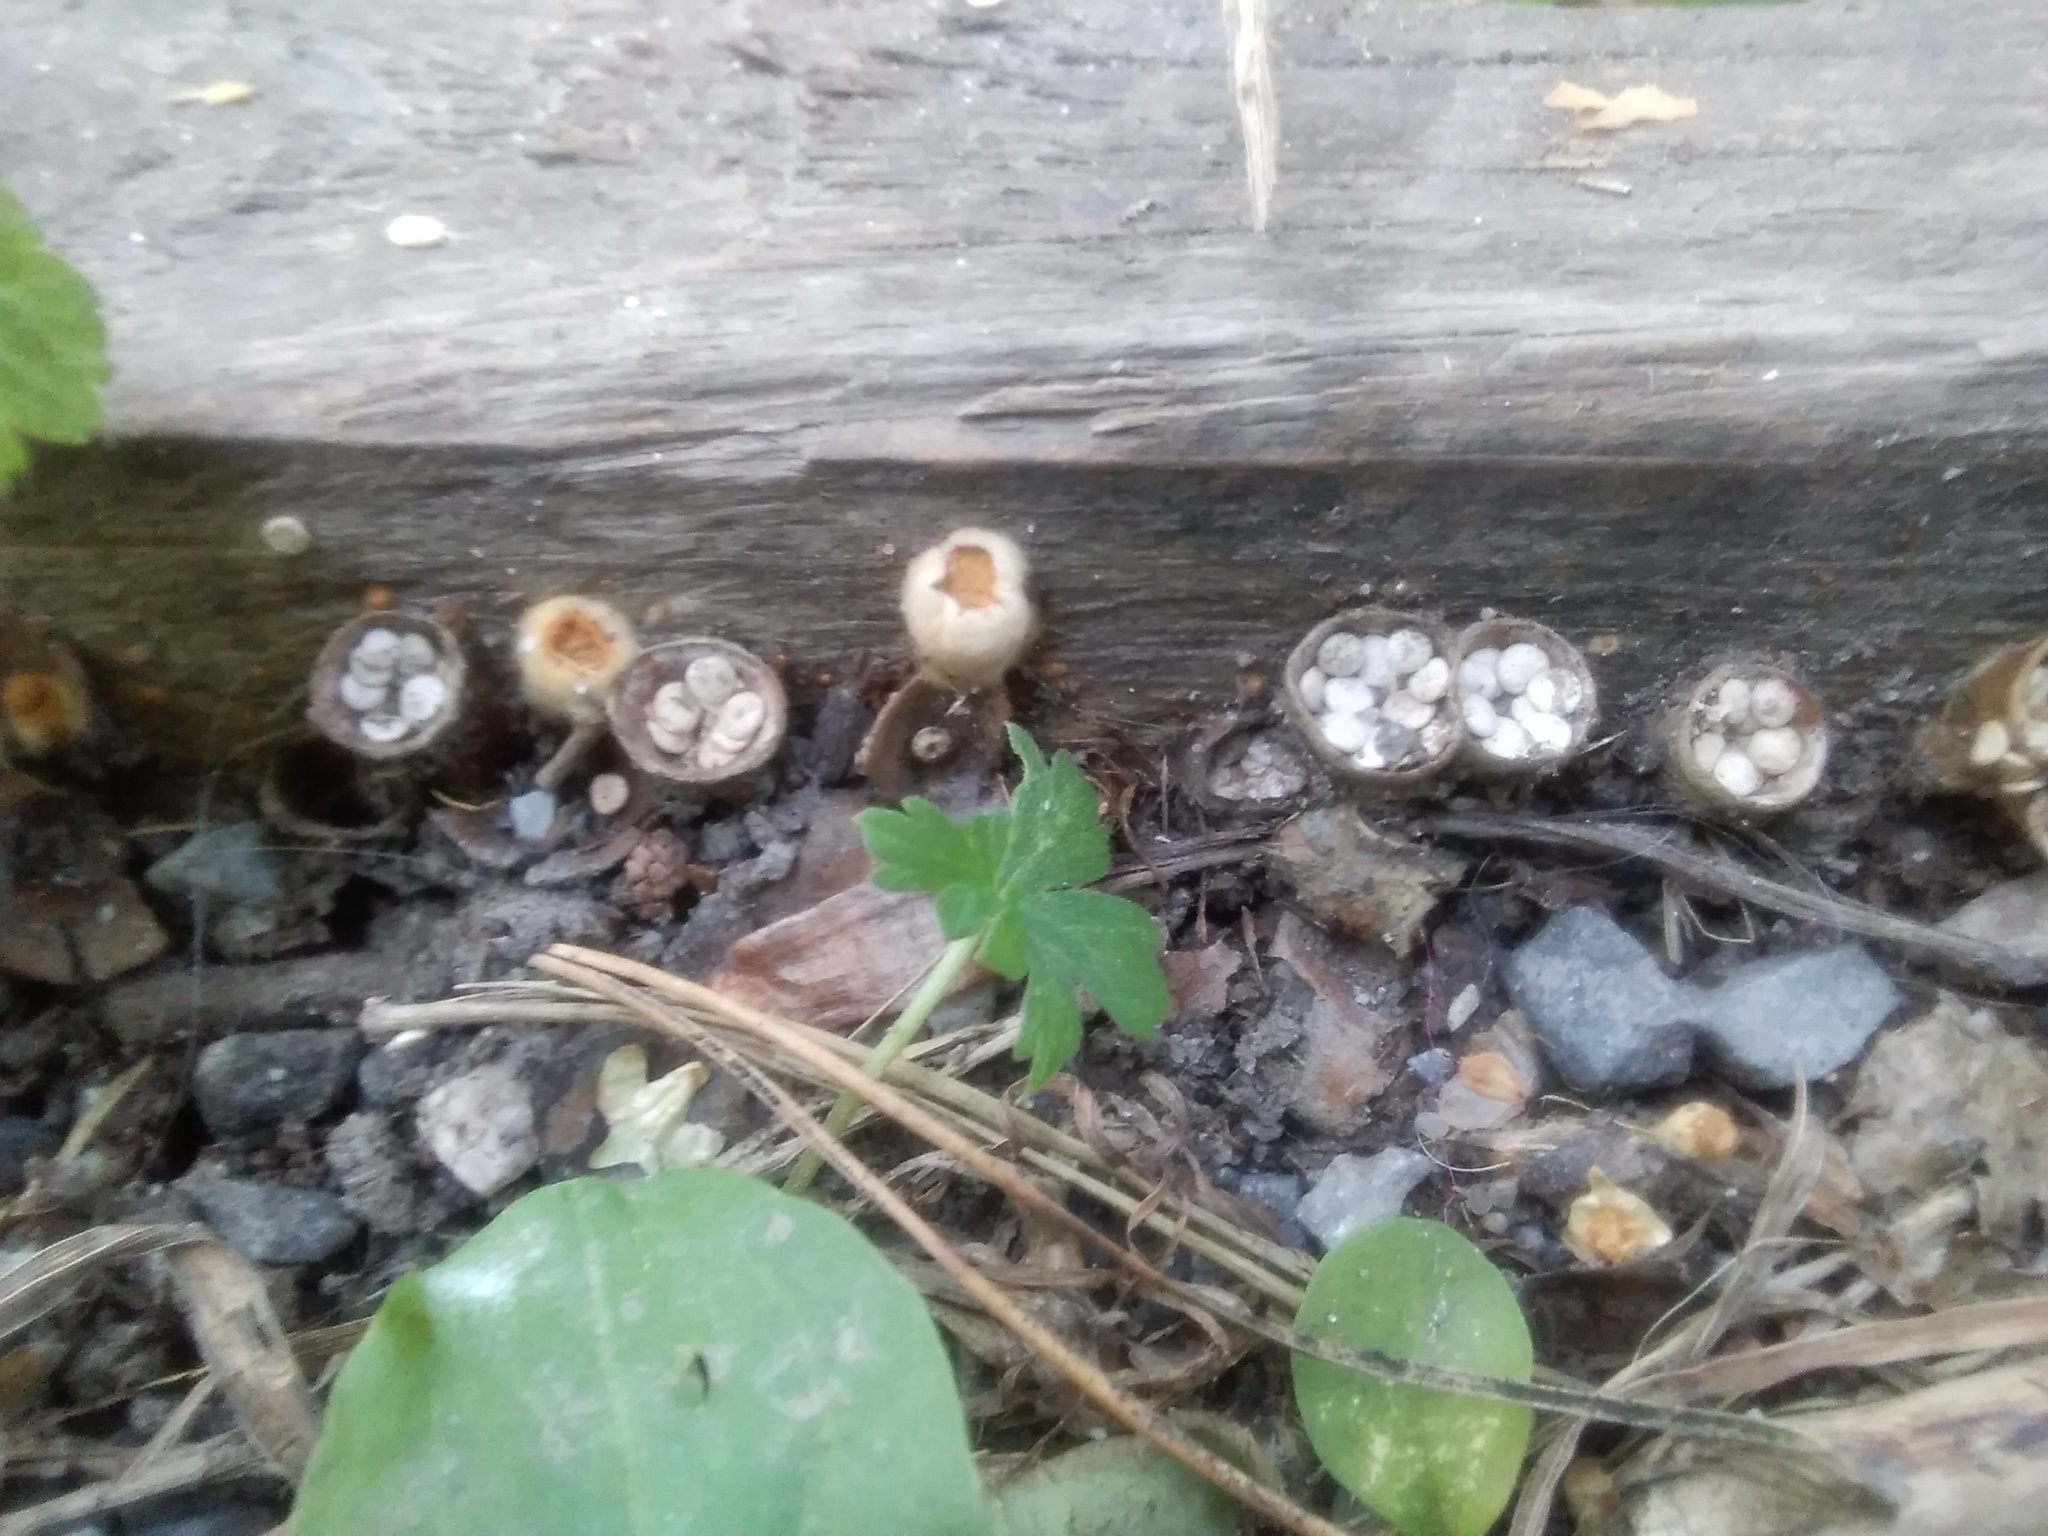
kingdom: Fungi
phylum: Basidiomycota
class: Agaricomycetes
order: Agaricales
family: Nidulariaceae
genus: Crucibulum
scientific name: Crucibulum laeve
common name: Common bird's nest
